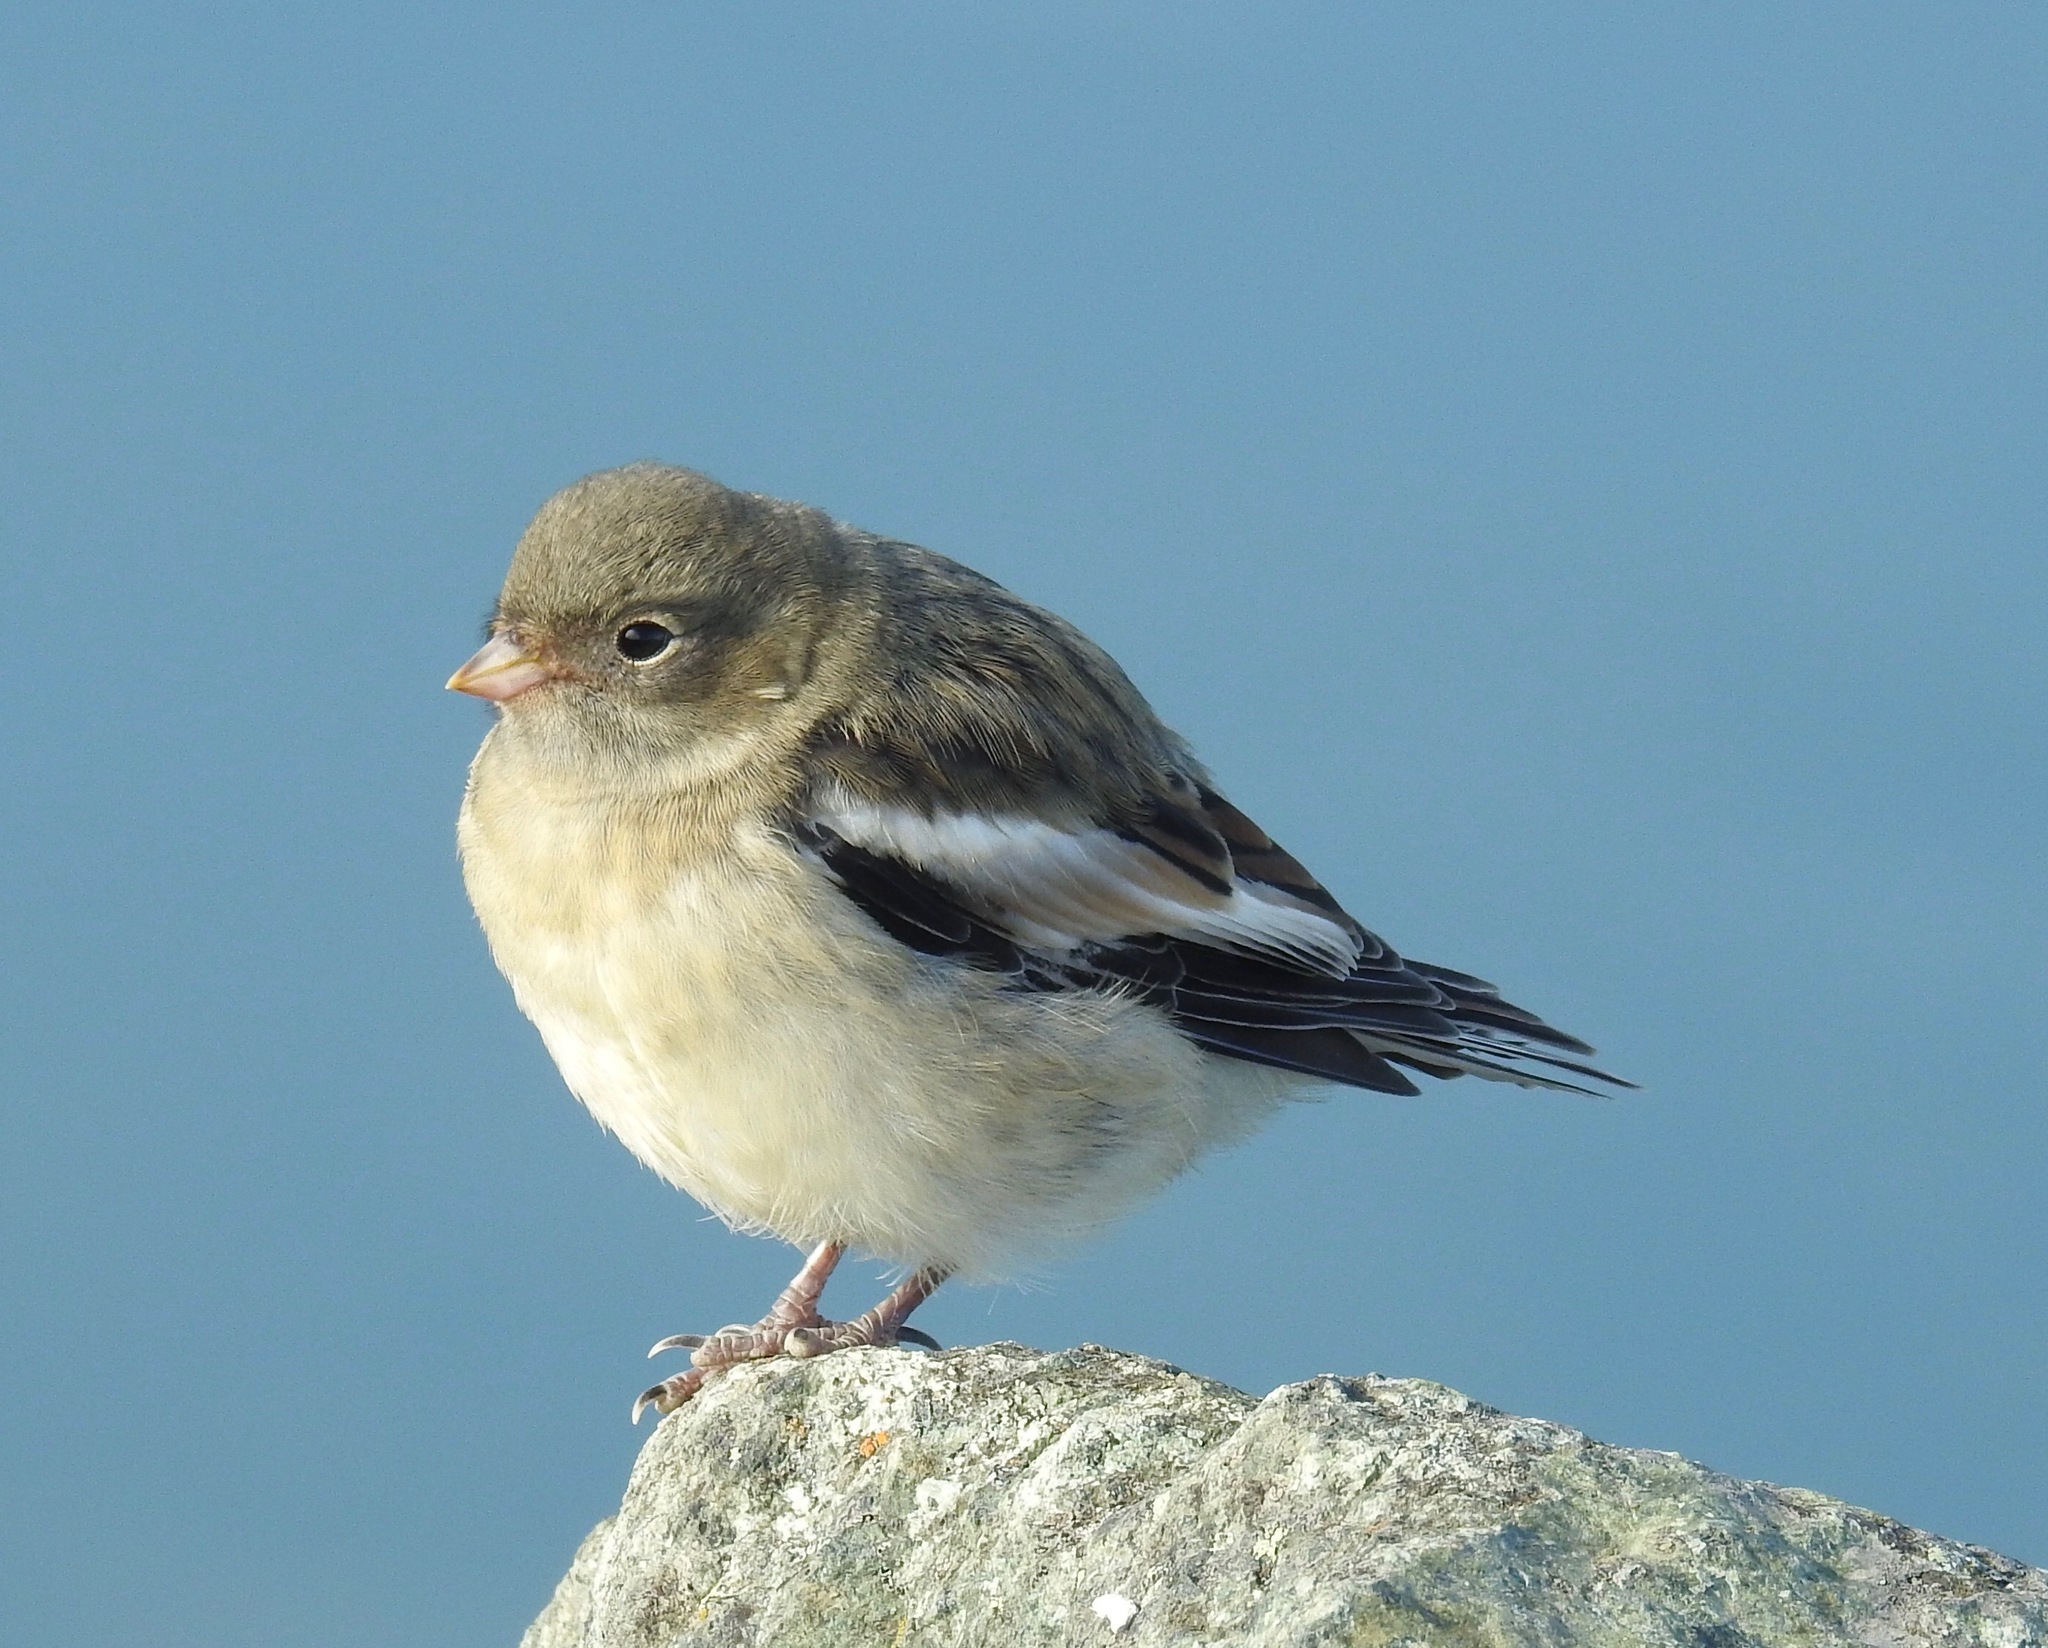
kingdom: Animalia
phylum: Chordata
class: Aves
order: Passeriformes
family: Calcariidae
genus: Plectrophenax
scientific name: Plectrophenax nivalis
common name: Snow bunting
